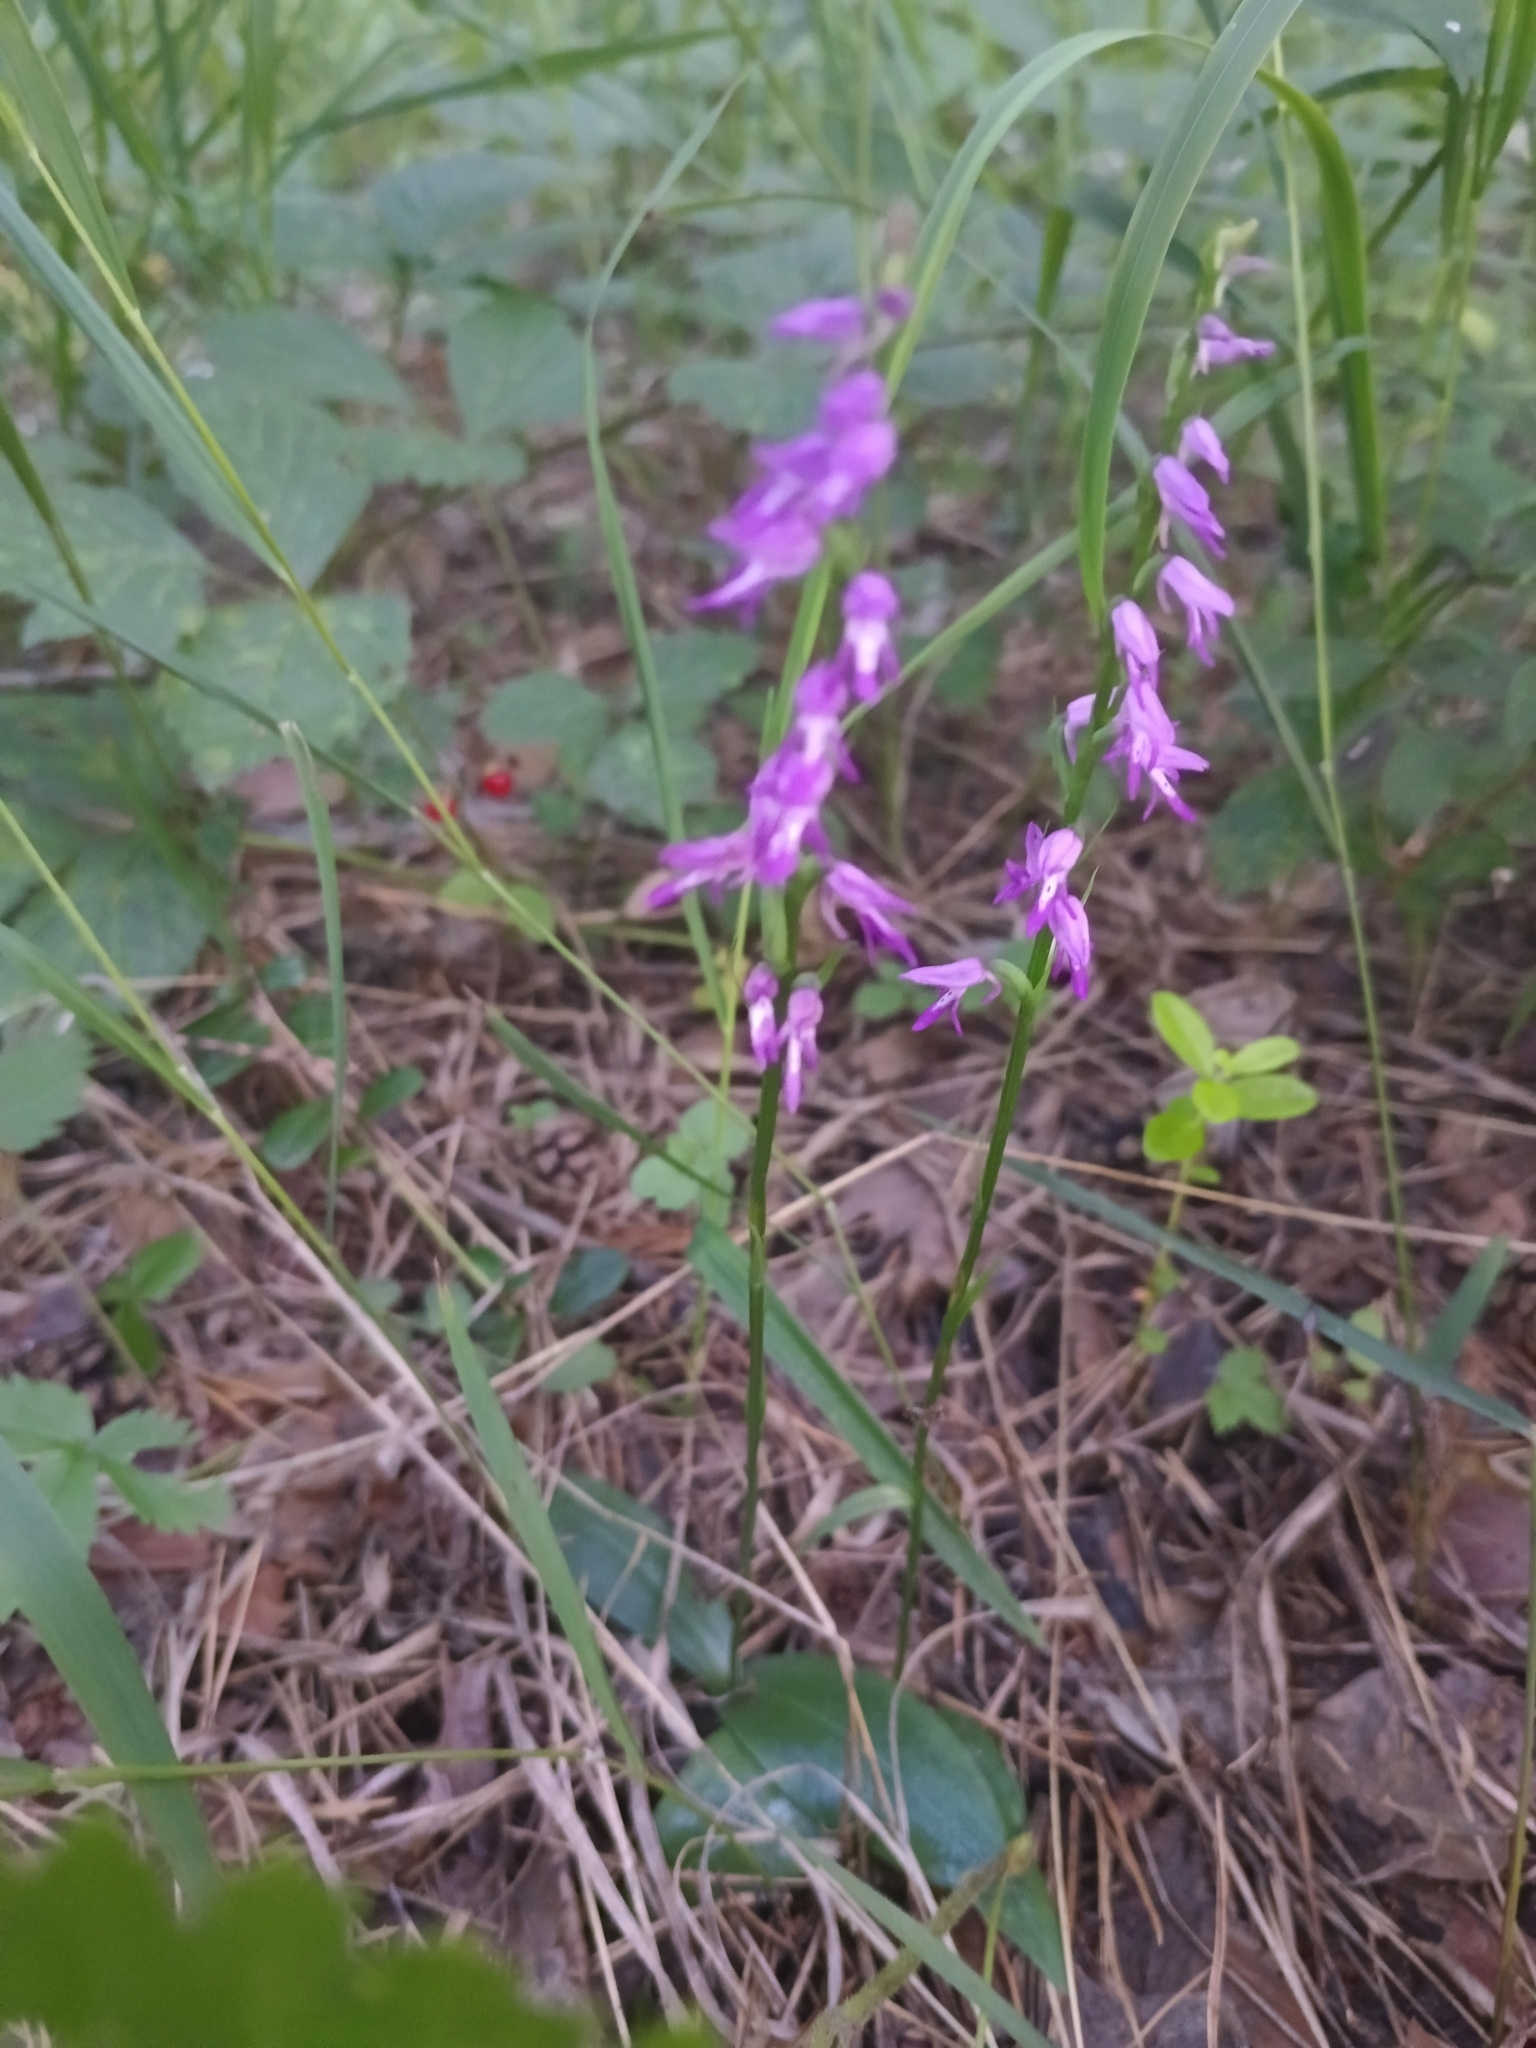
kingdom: Plantae
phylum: Tracheophyta
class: Liliopsida
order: Asparagales
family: Orchidaceae
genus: Hemipilia
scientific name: Hemipilia cucullata
